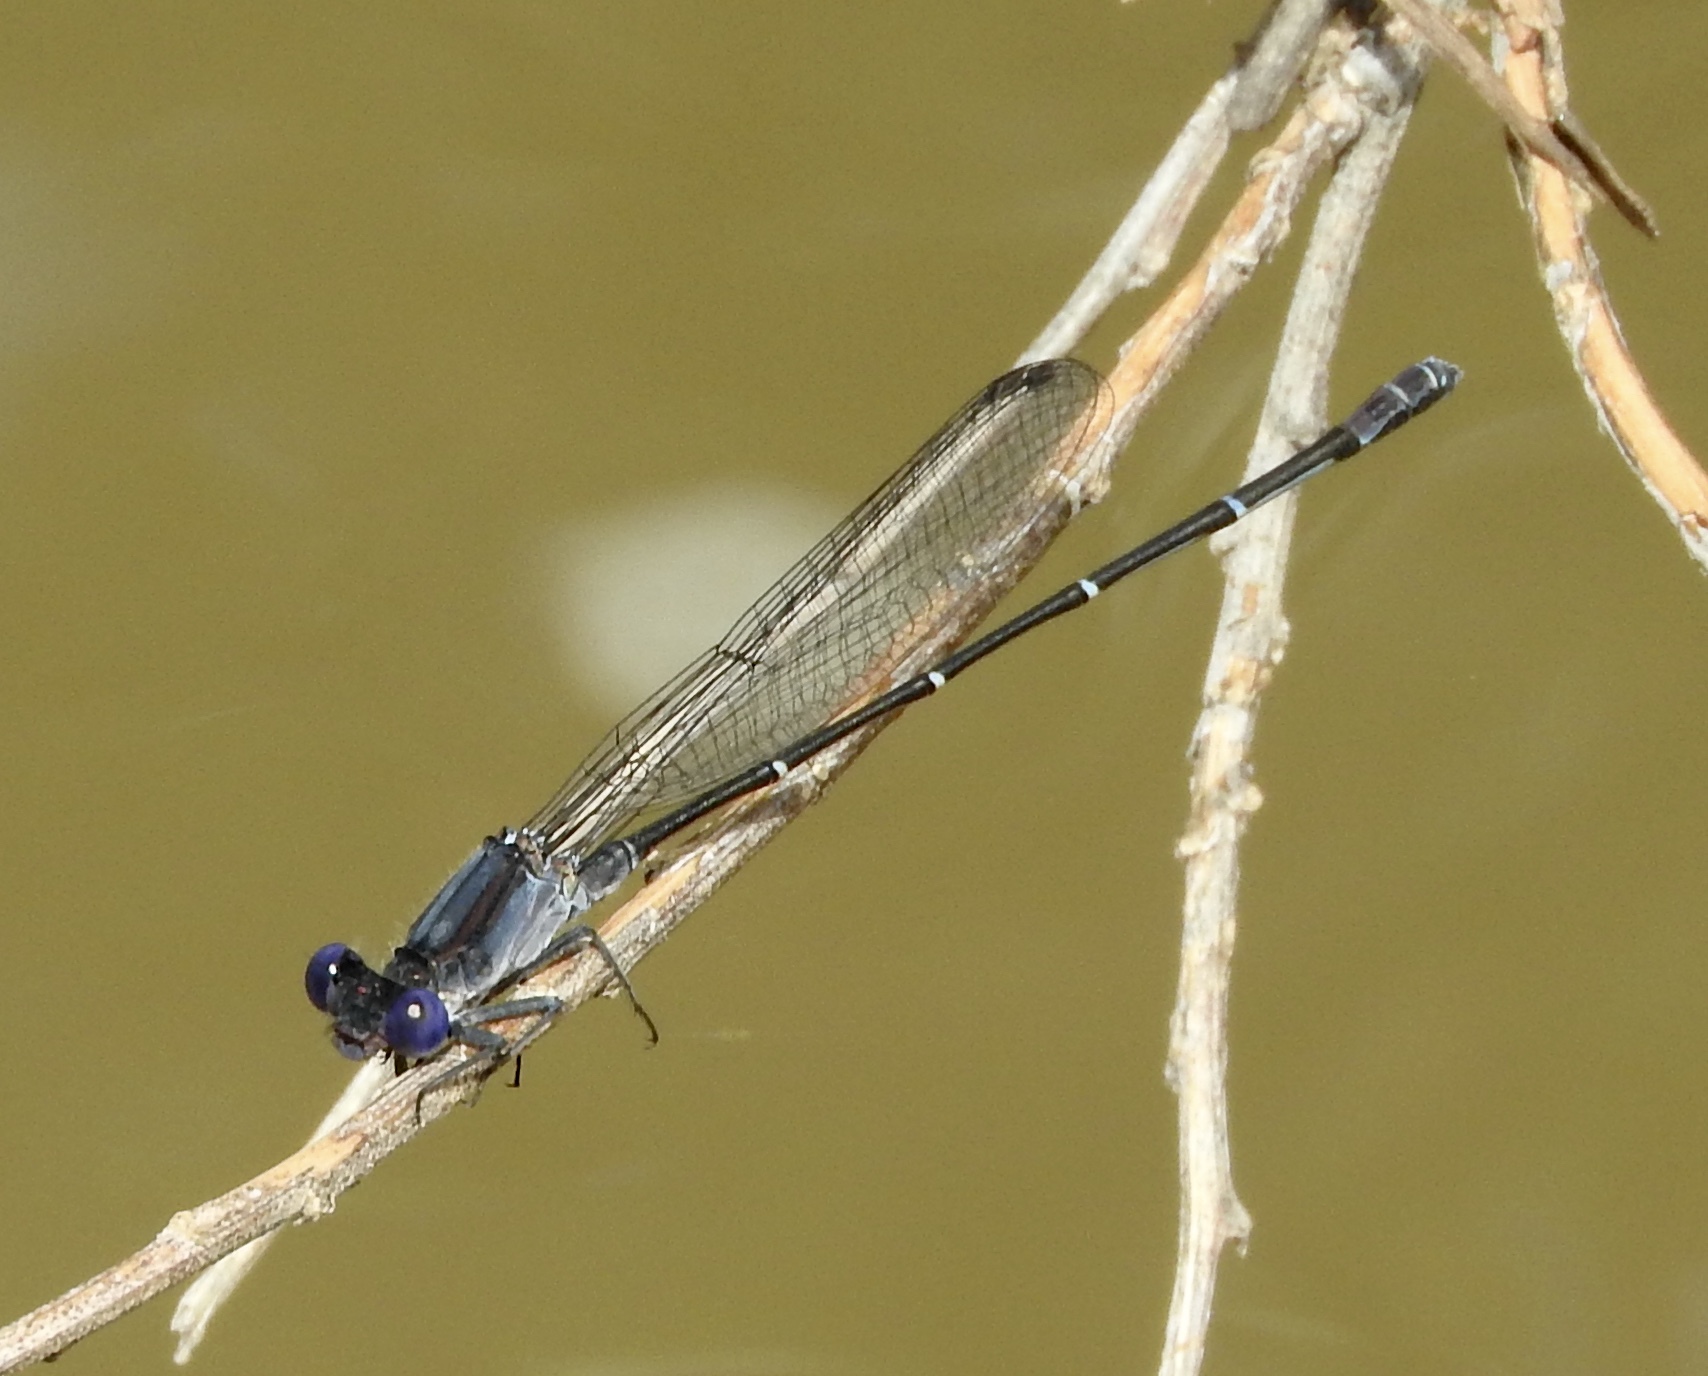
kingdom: Animalia
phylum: Arthropoda
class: Insecta
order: Odonata
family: Coenagrionidae
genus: Argia
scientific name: Argia translata
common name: Dusky dancer
